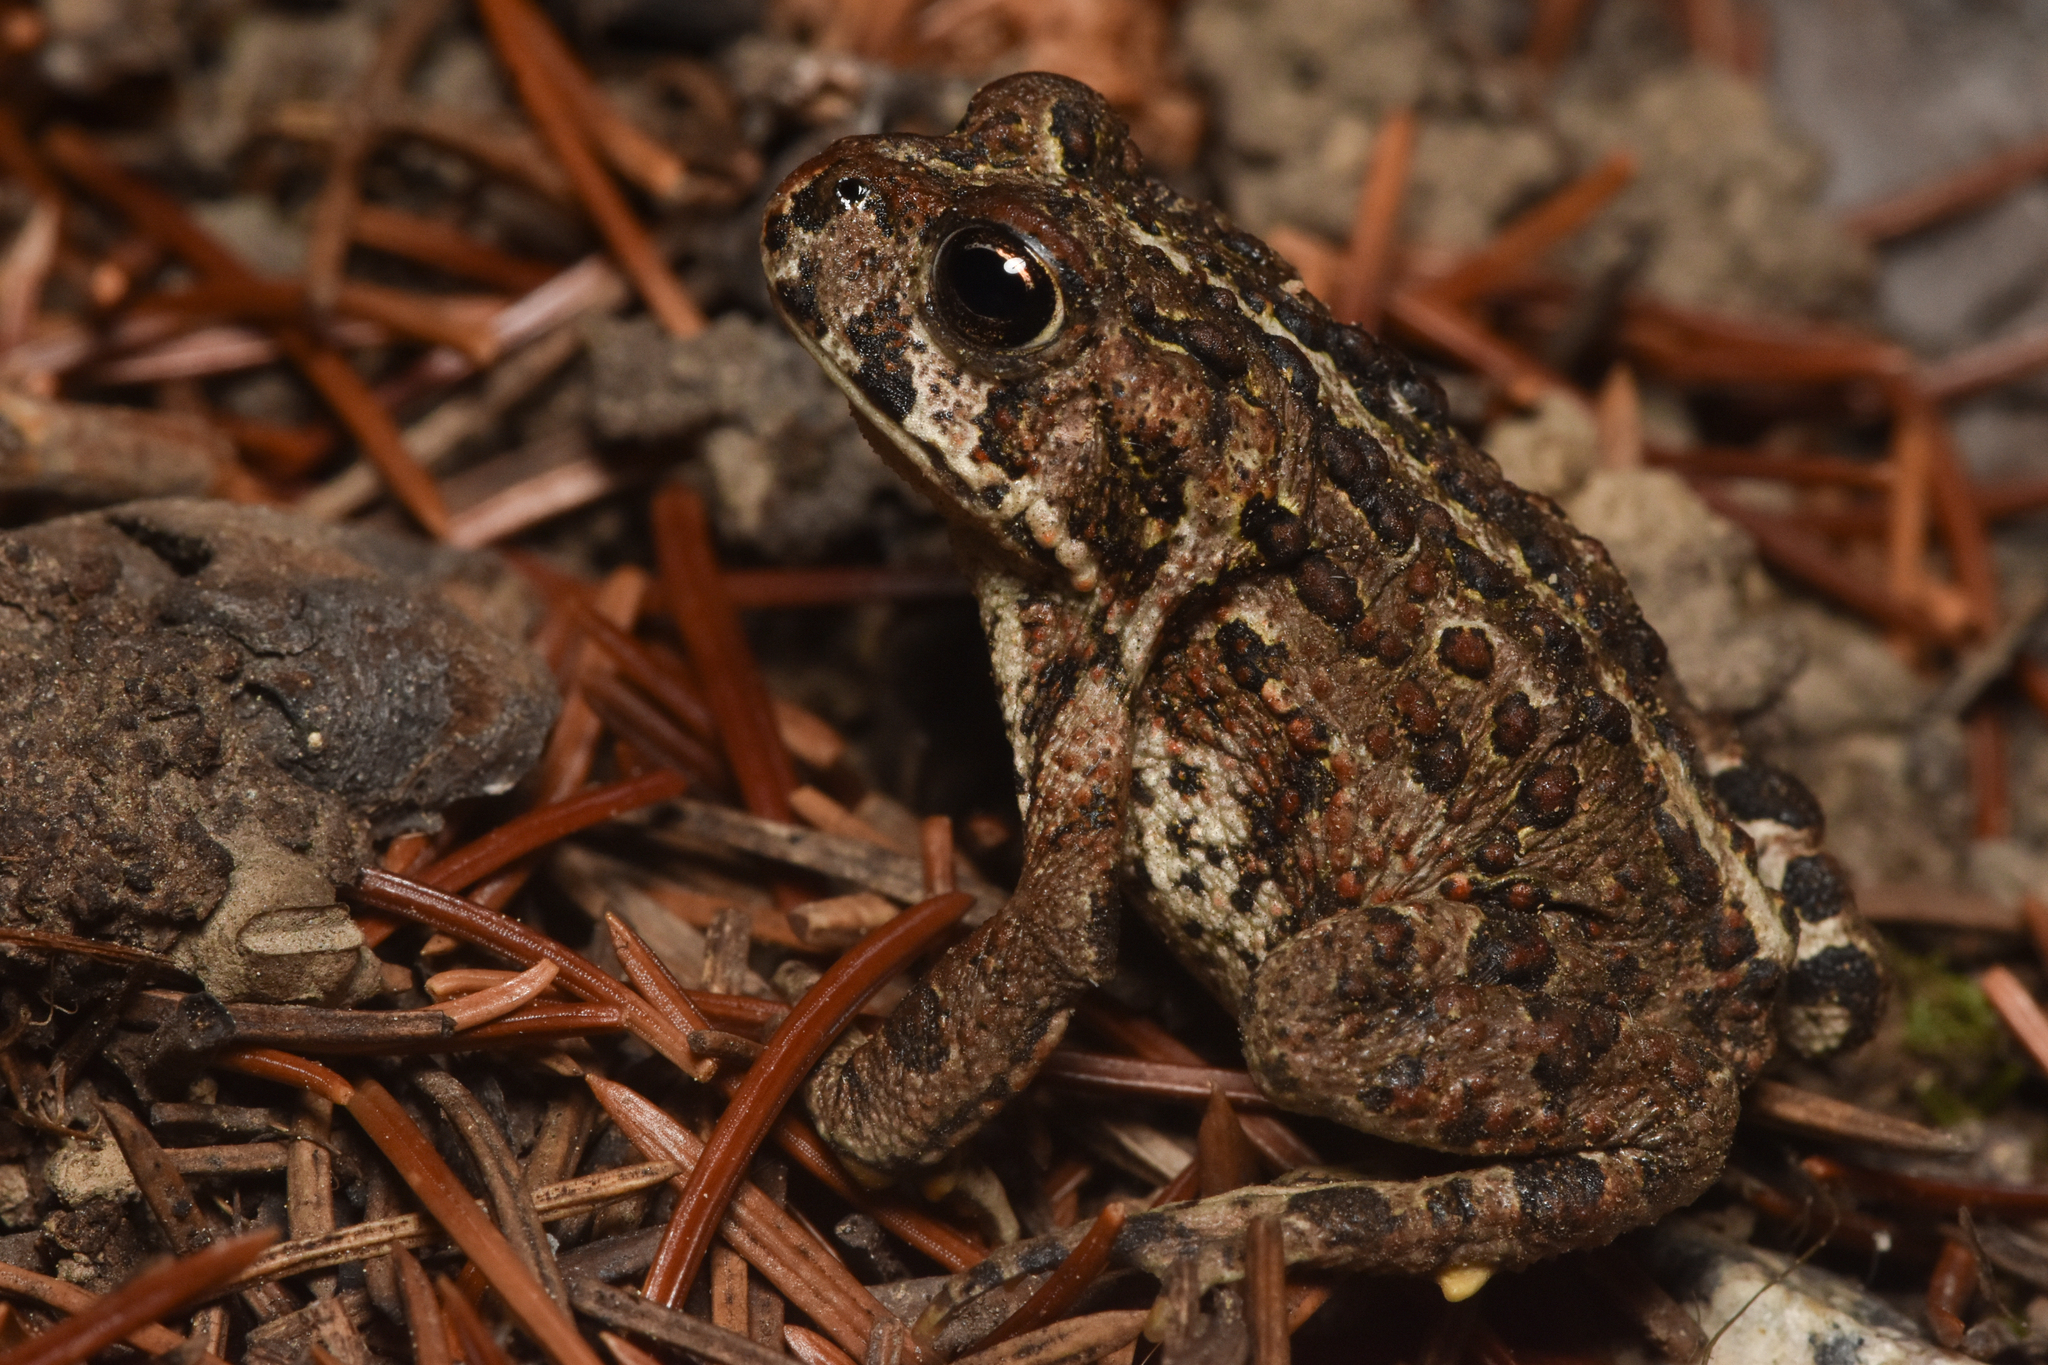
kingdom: Animalia
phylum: Chordata
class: Amphibia
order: Anura
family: Bufonidae
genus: Anaxyrus
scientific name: Anaxyrus boreas
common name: Western toad
